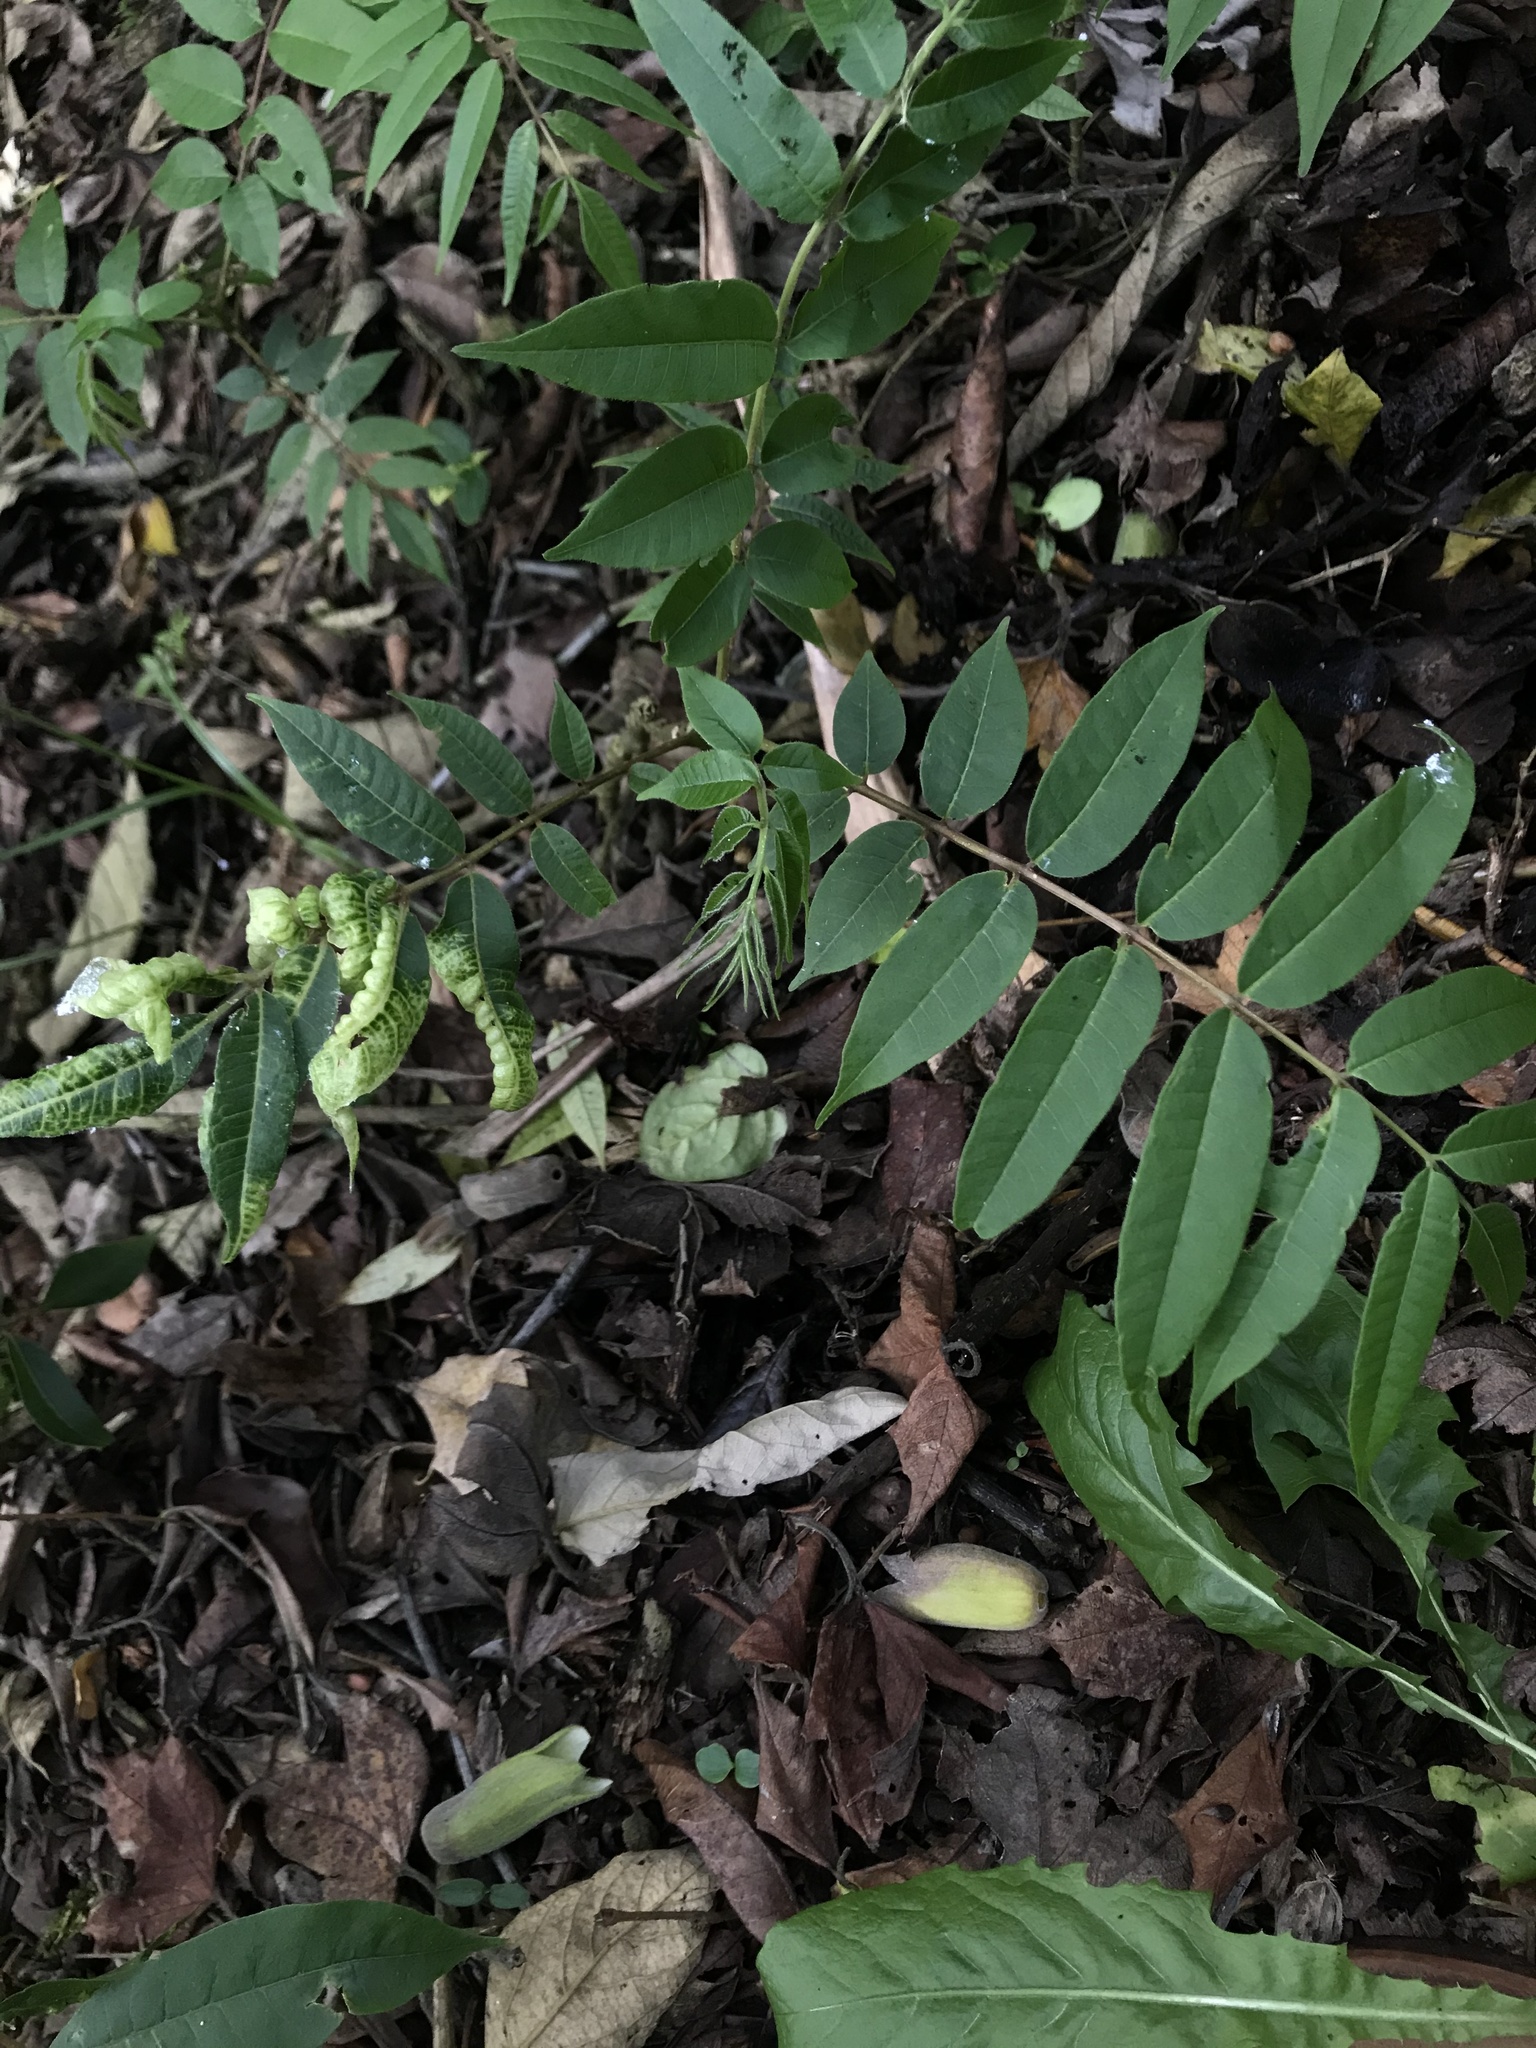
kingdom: Fungi
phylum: Ascomycota
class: Taphrinomycetes
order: Taphrinales
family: Taphrinaceae
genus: Taphrina
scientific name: Taphrina deformans
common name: Peach leaf curl
